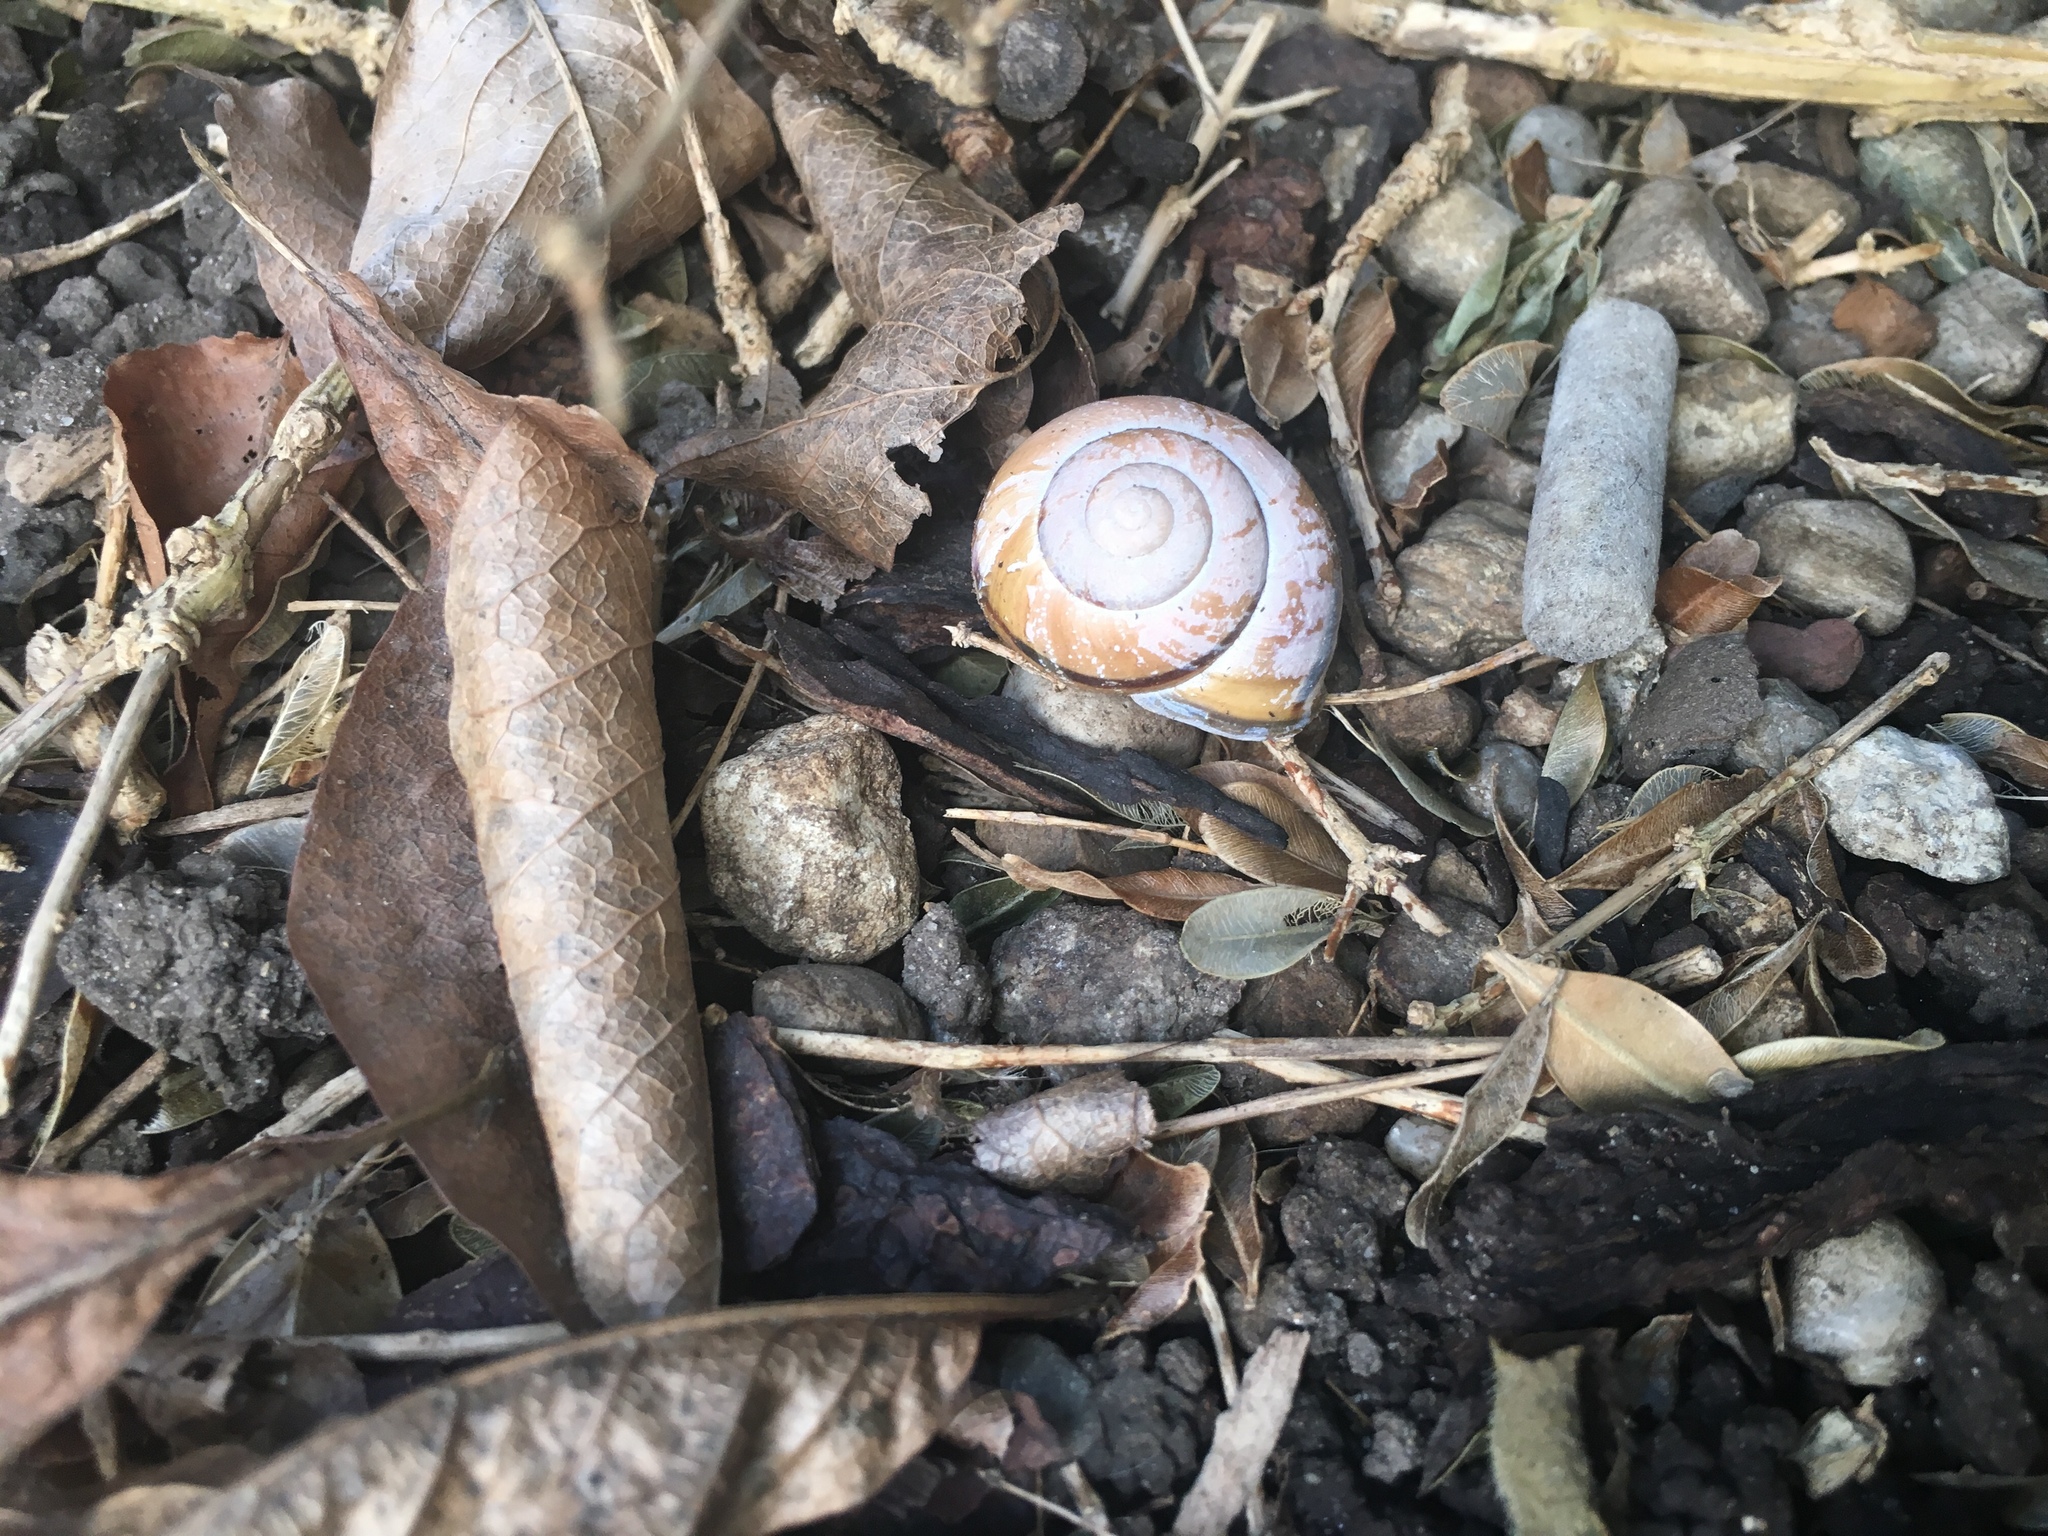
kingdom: Animalia
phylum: Mollusca
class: Gastropoda
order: Stylommatophora
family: Helicidae
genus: Cepaea
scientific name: Cepaea nemoralis
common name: Grovesnail
